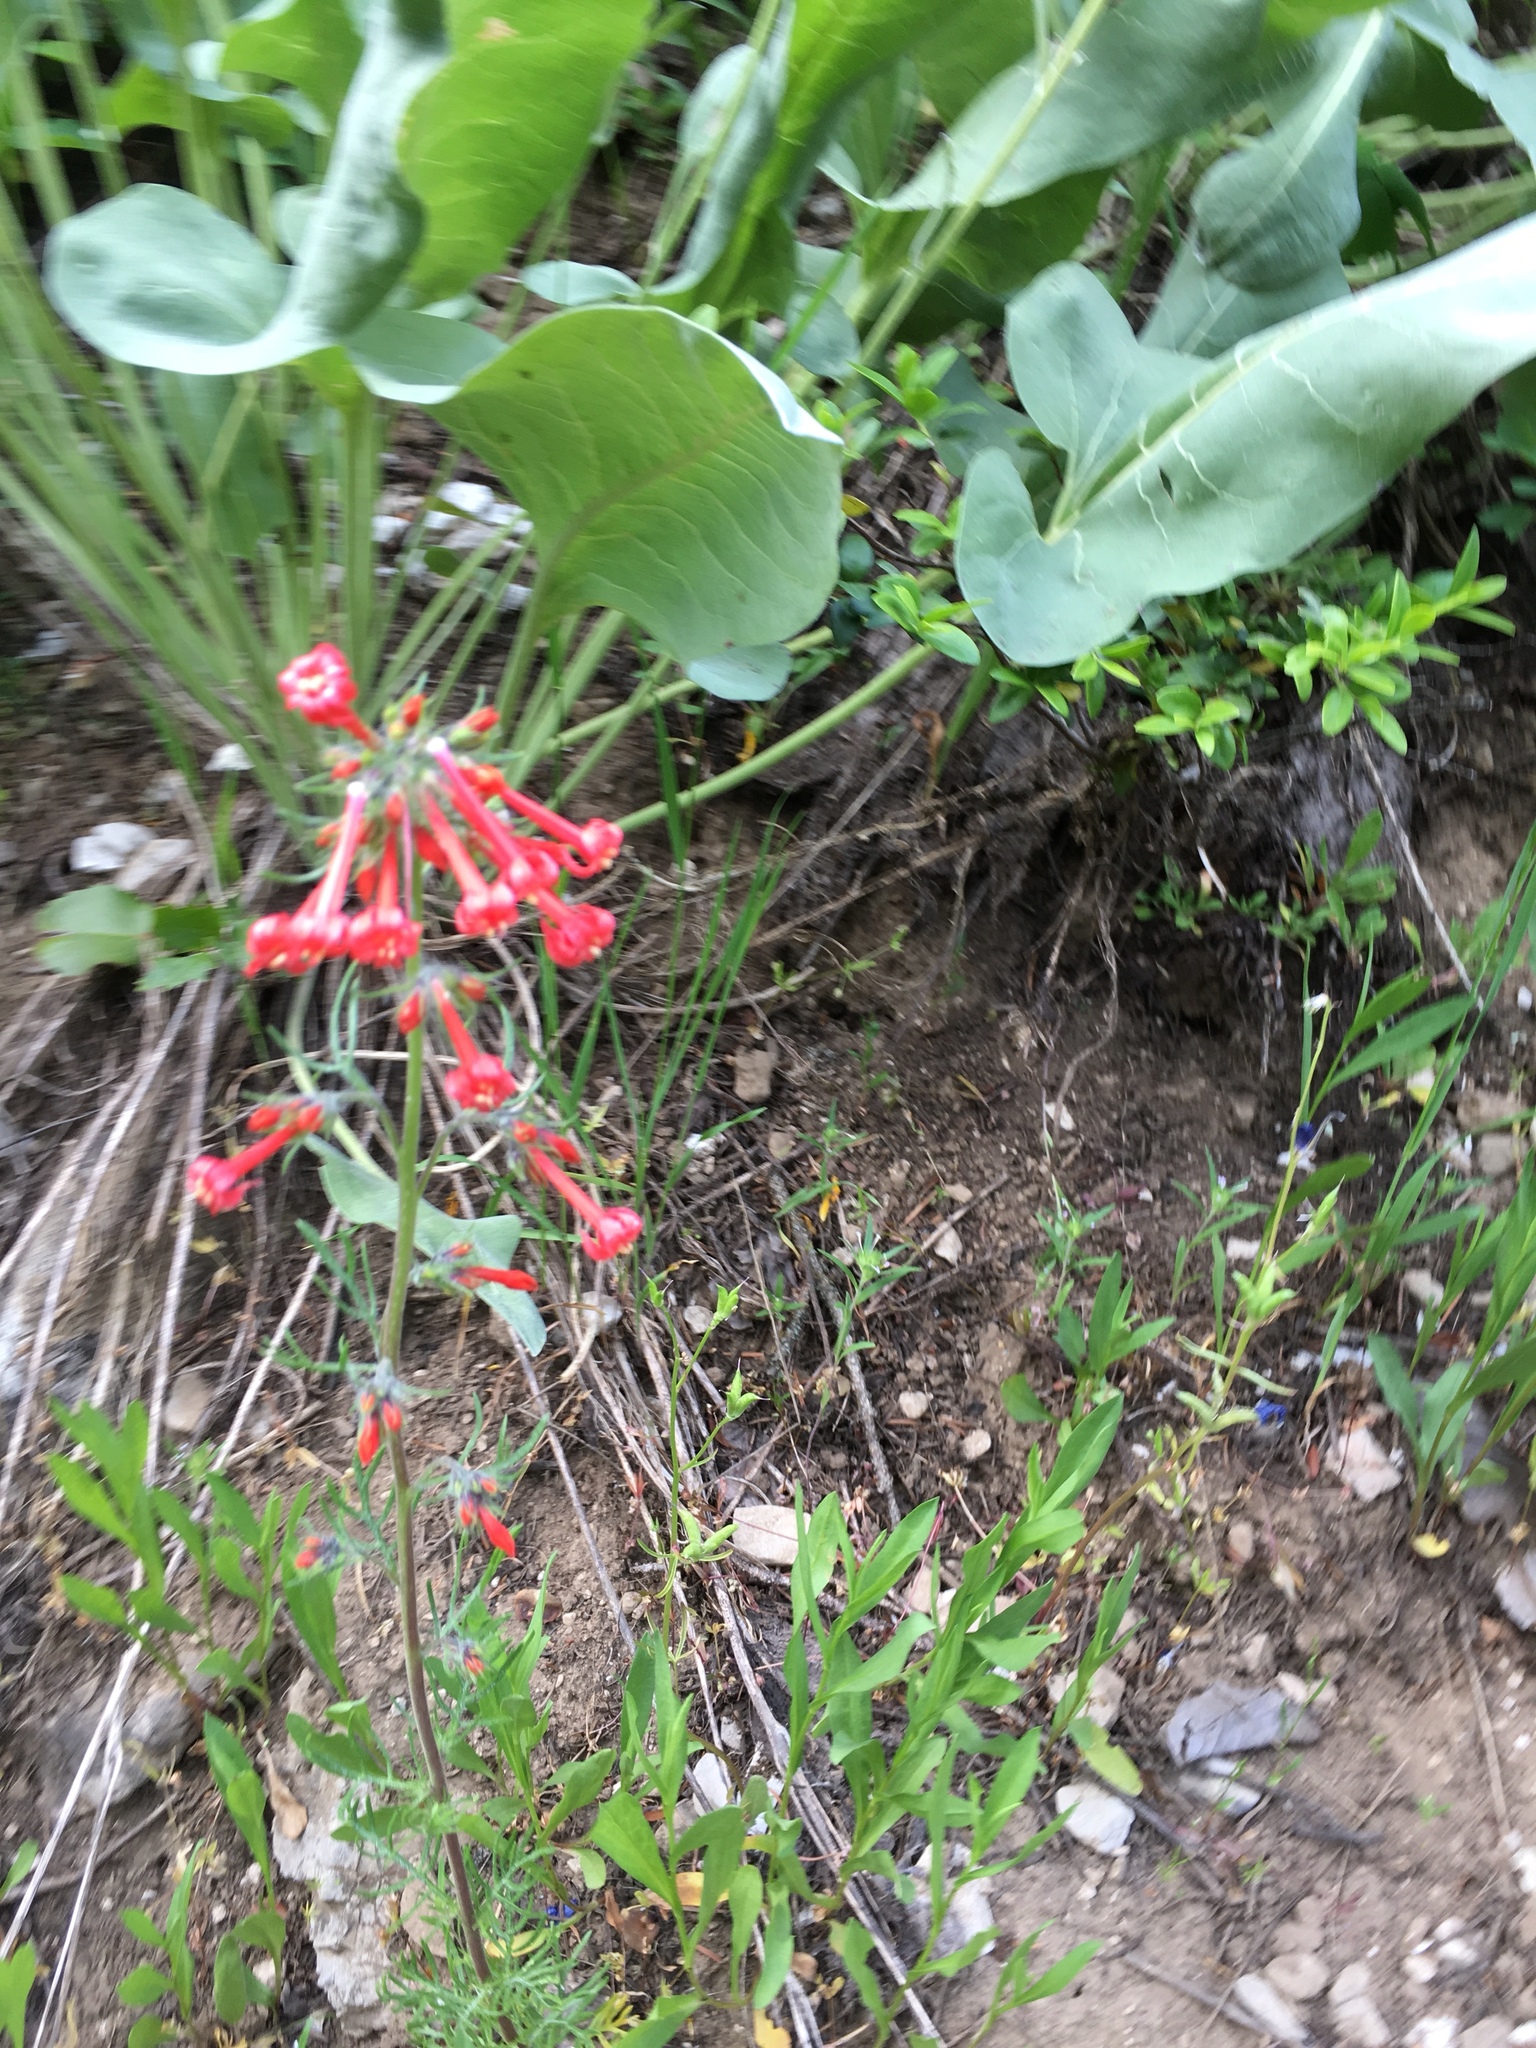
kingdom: Plantae
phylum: Tracheophyta
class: Magnoliopsida
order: Ericales
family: Polemoniaceae
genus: Ipomopsis
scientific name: Ipomopsis aggregata
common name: Scarlet gilia
